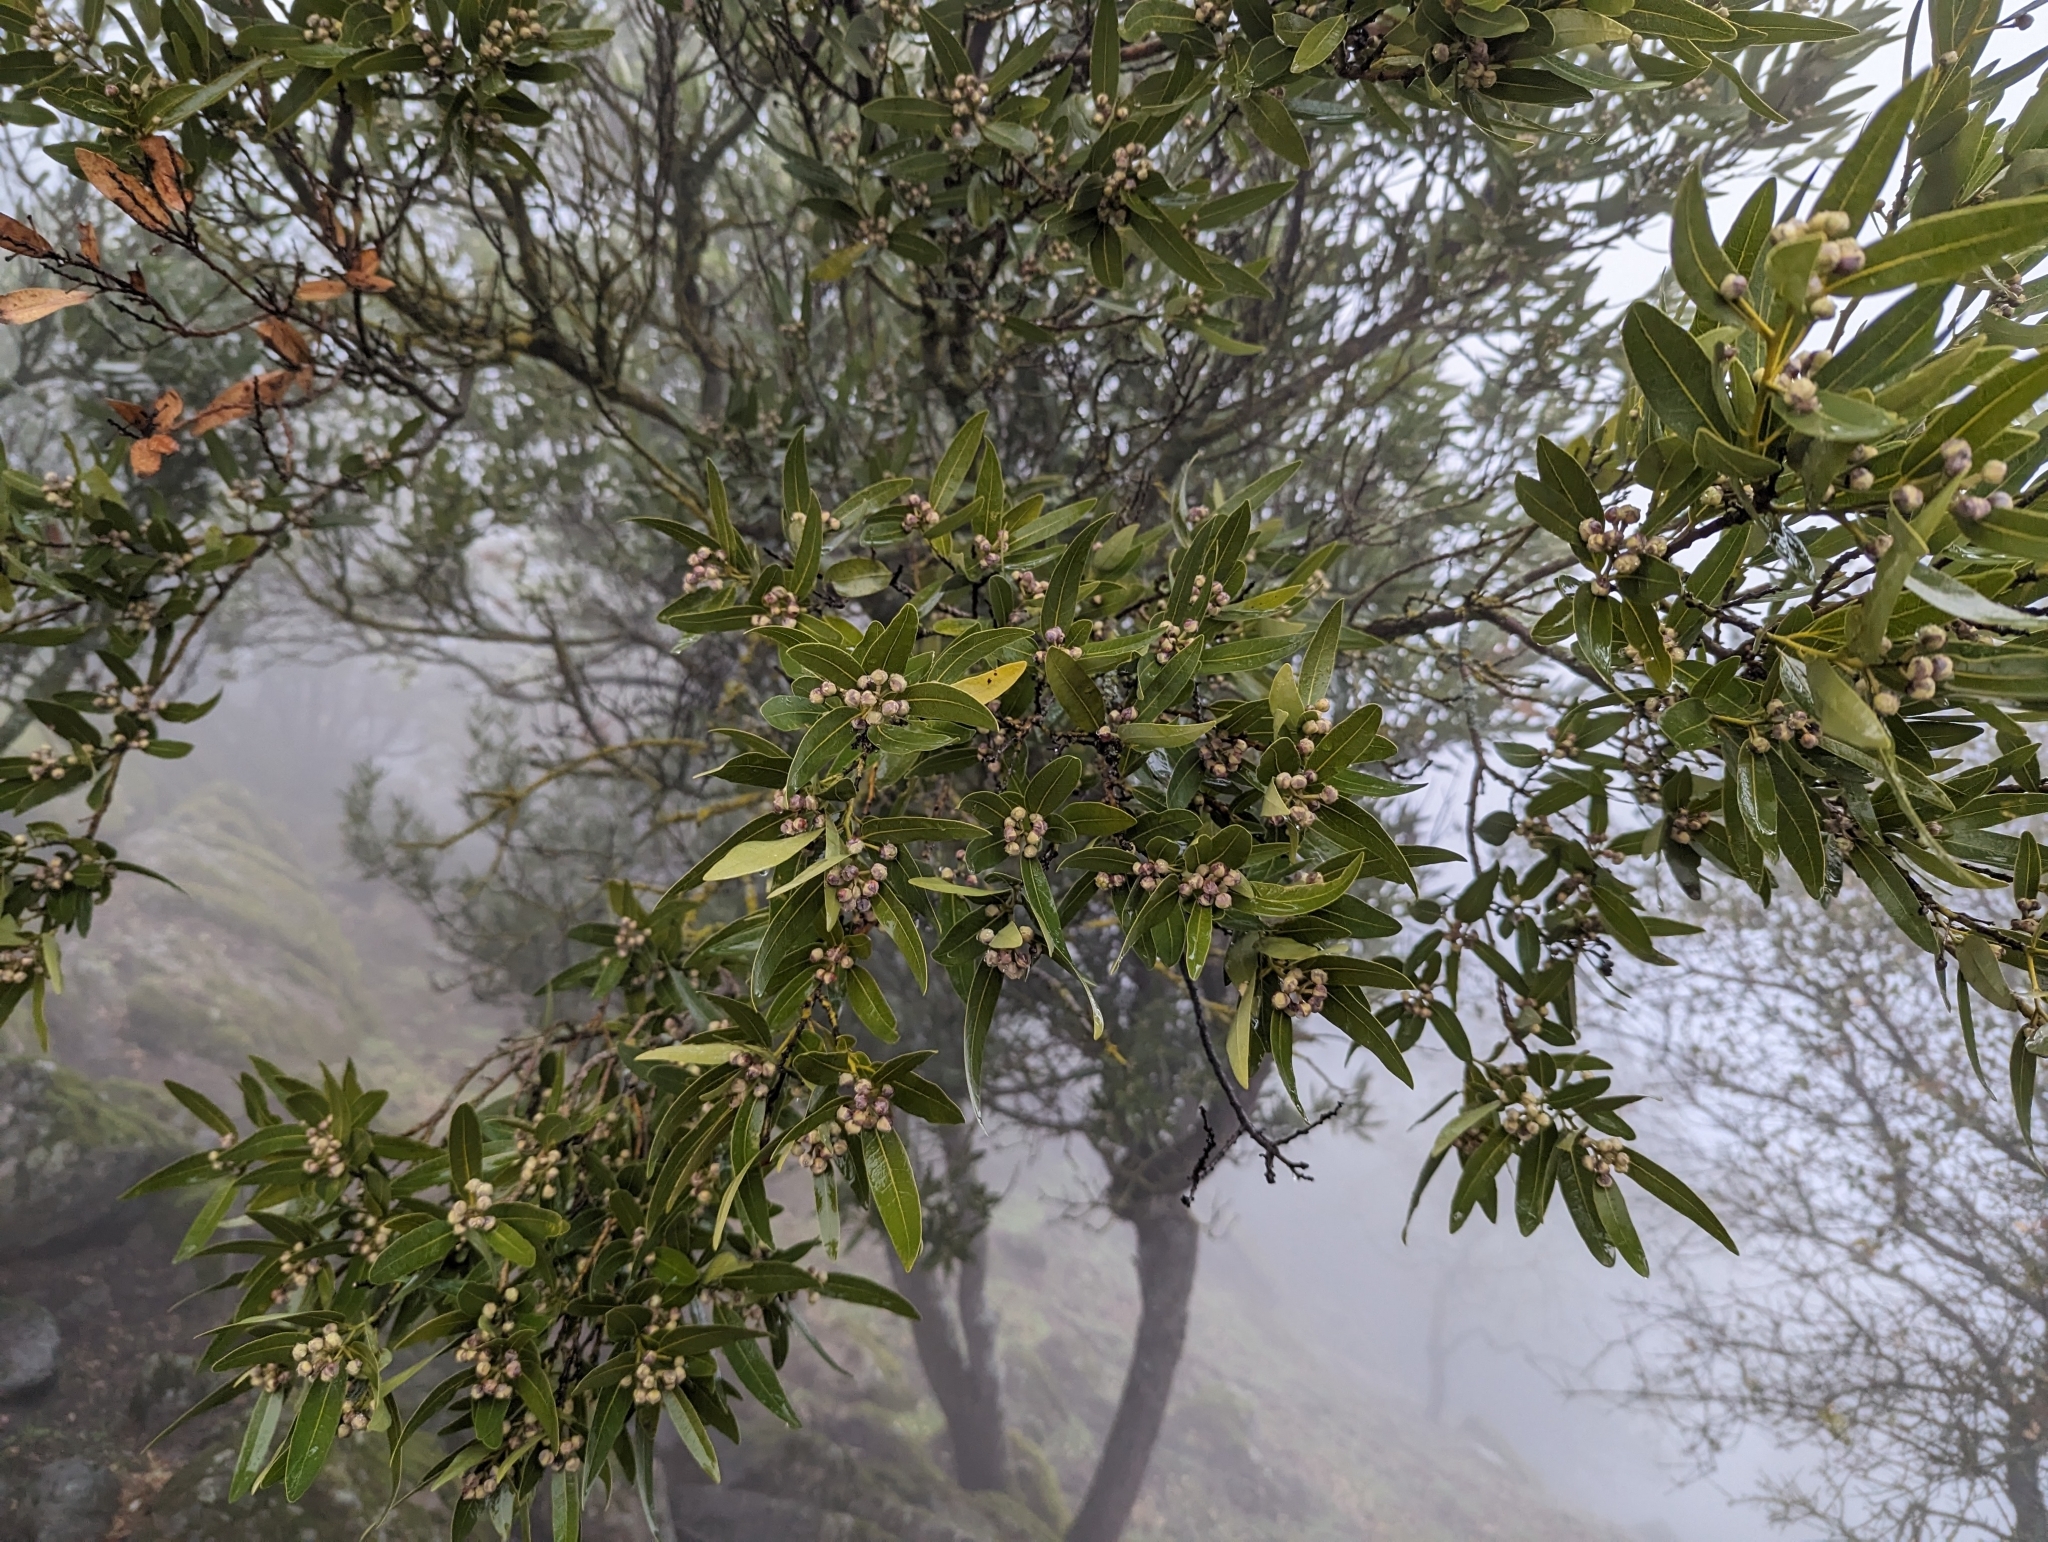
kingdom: Plantae
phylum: Tracheophyta
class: Magnoliopsida
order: Laurales
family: Lauraceae
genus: Umbellularia
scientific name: Umbellularia californica
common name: California bay
